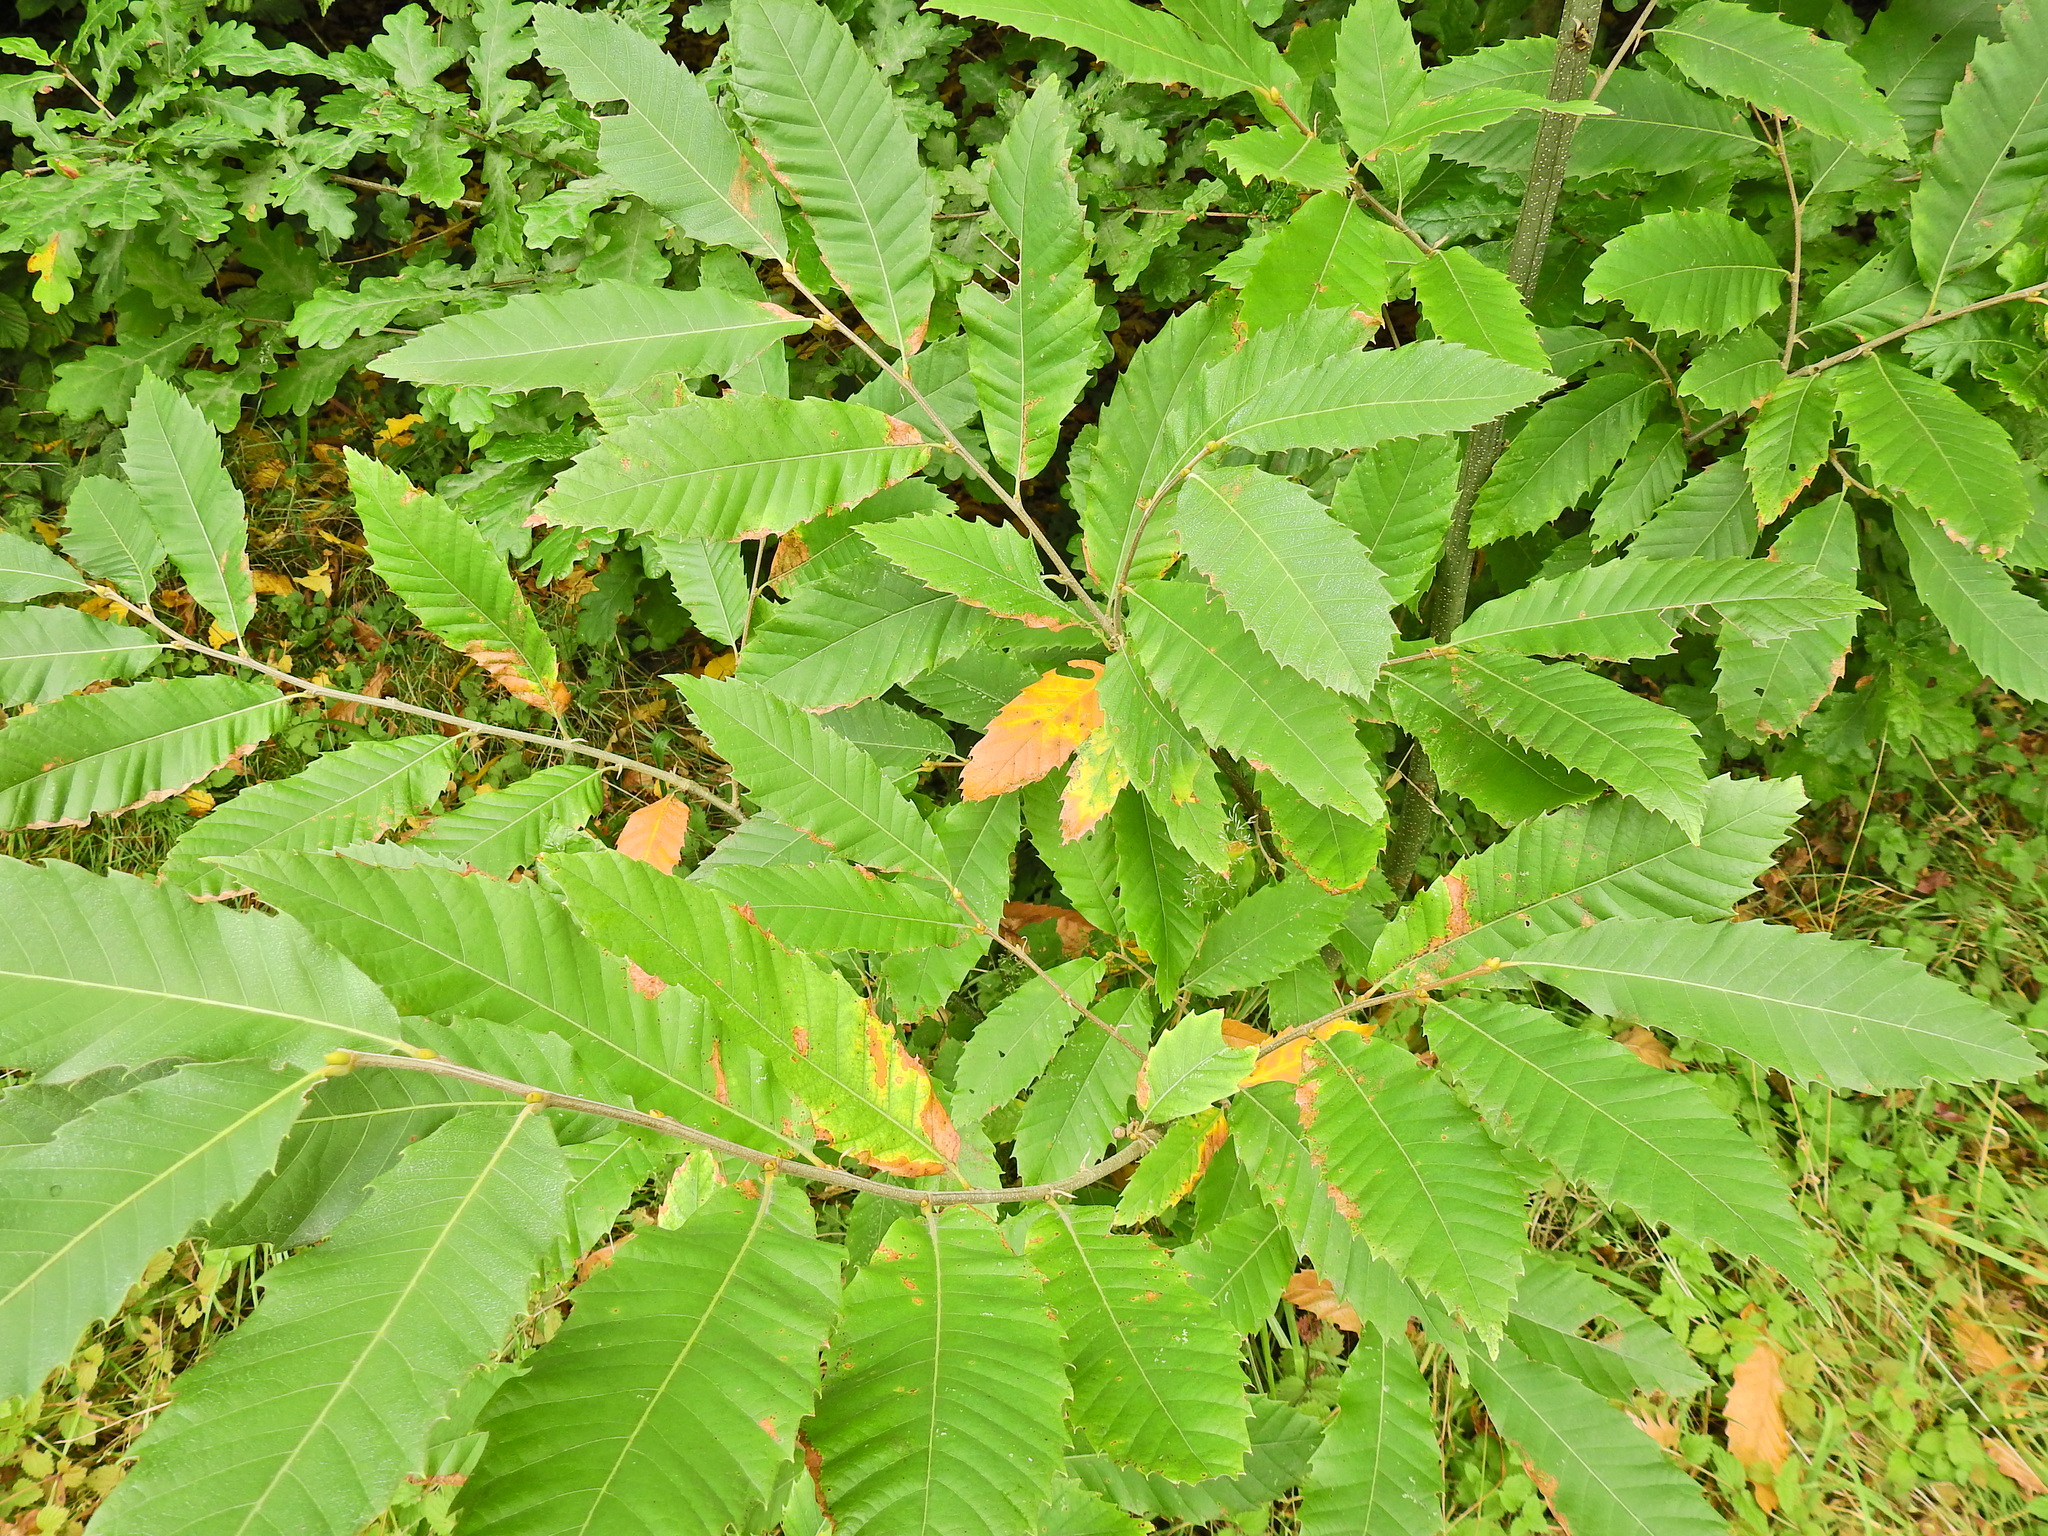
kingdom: Plantae
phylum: Tracheophyta
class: Magnoliopsida
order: Fagales
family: Fagaceae
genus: Castanea
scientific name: Castanea sativa
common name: Sweet chestnut
